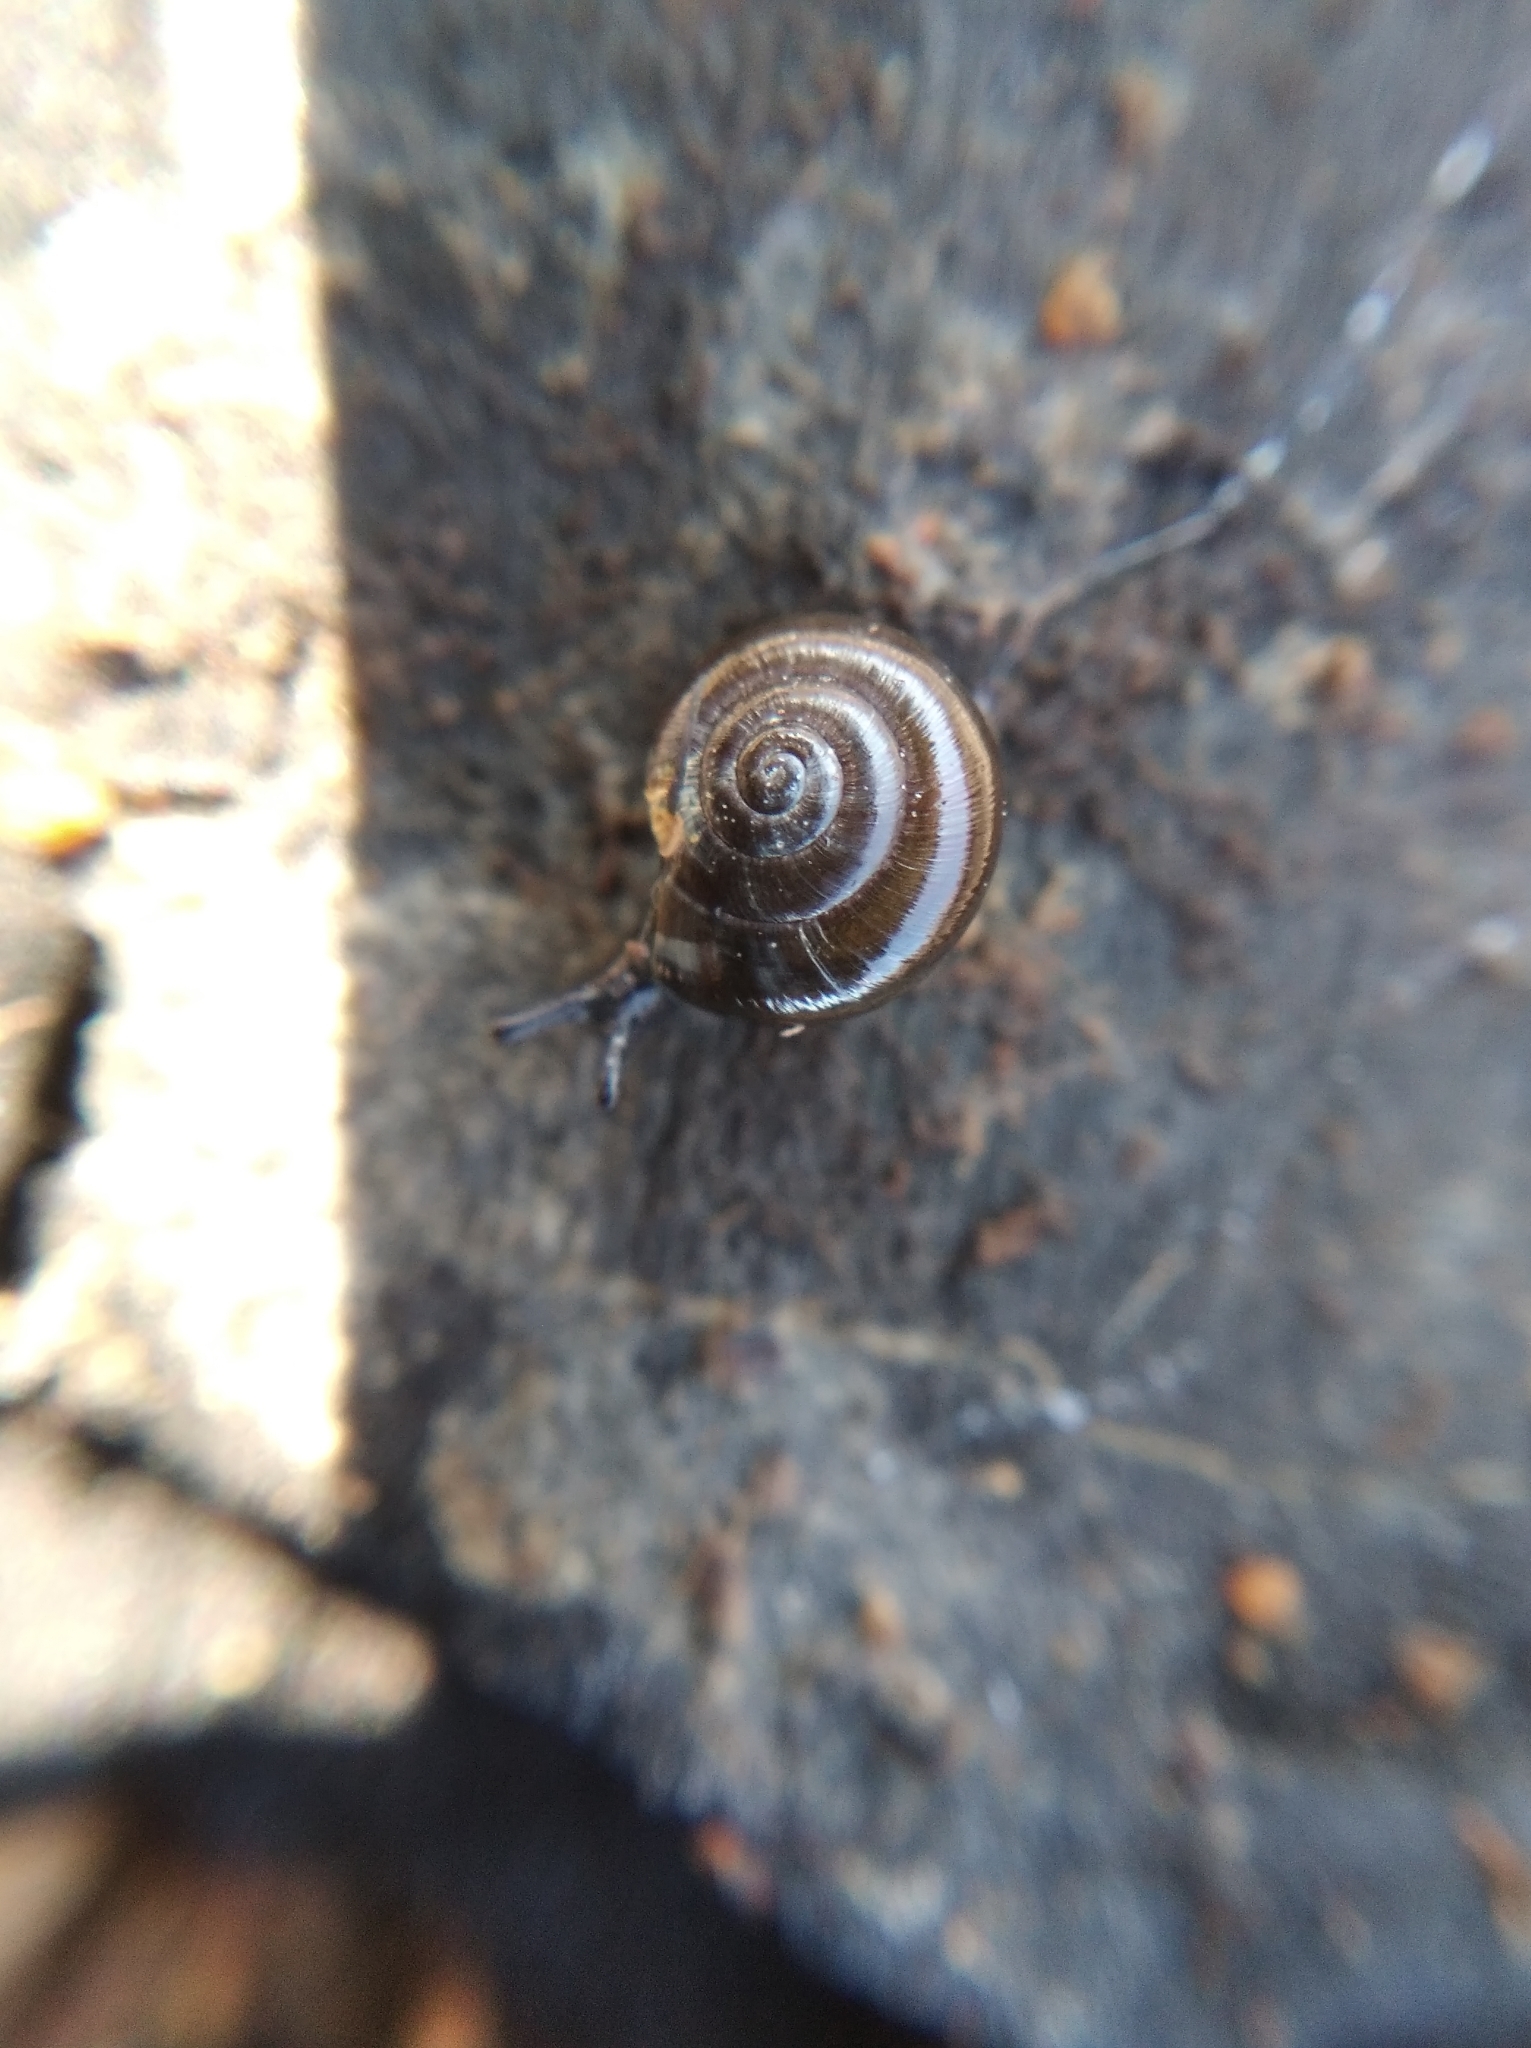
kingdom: Animalia
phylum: Mollusca
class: Gastropoda
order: Stylommatophora
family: Gastrodontidae
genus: Zonitoides
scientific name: Zonitoides nitidus
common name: Shiny glass snail
